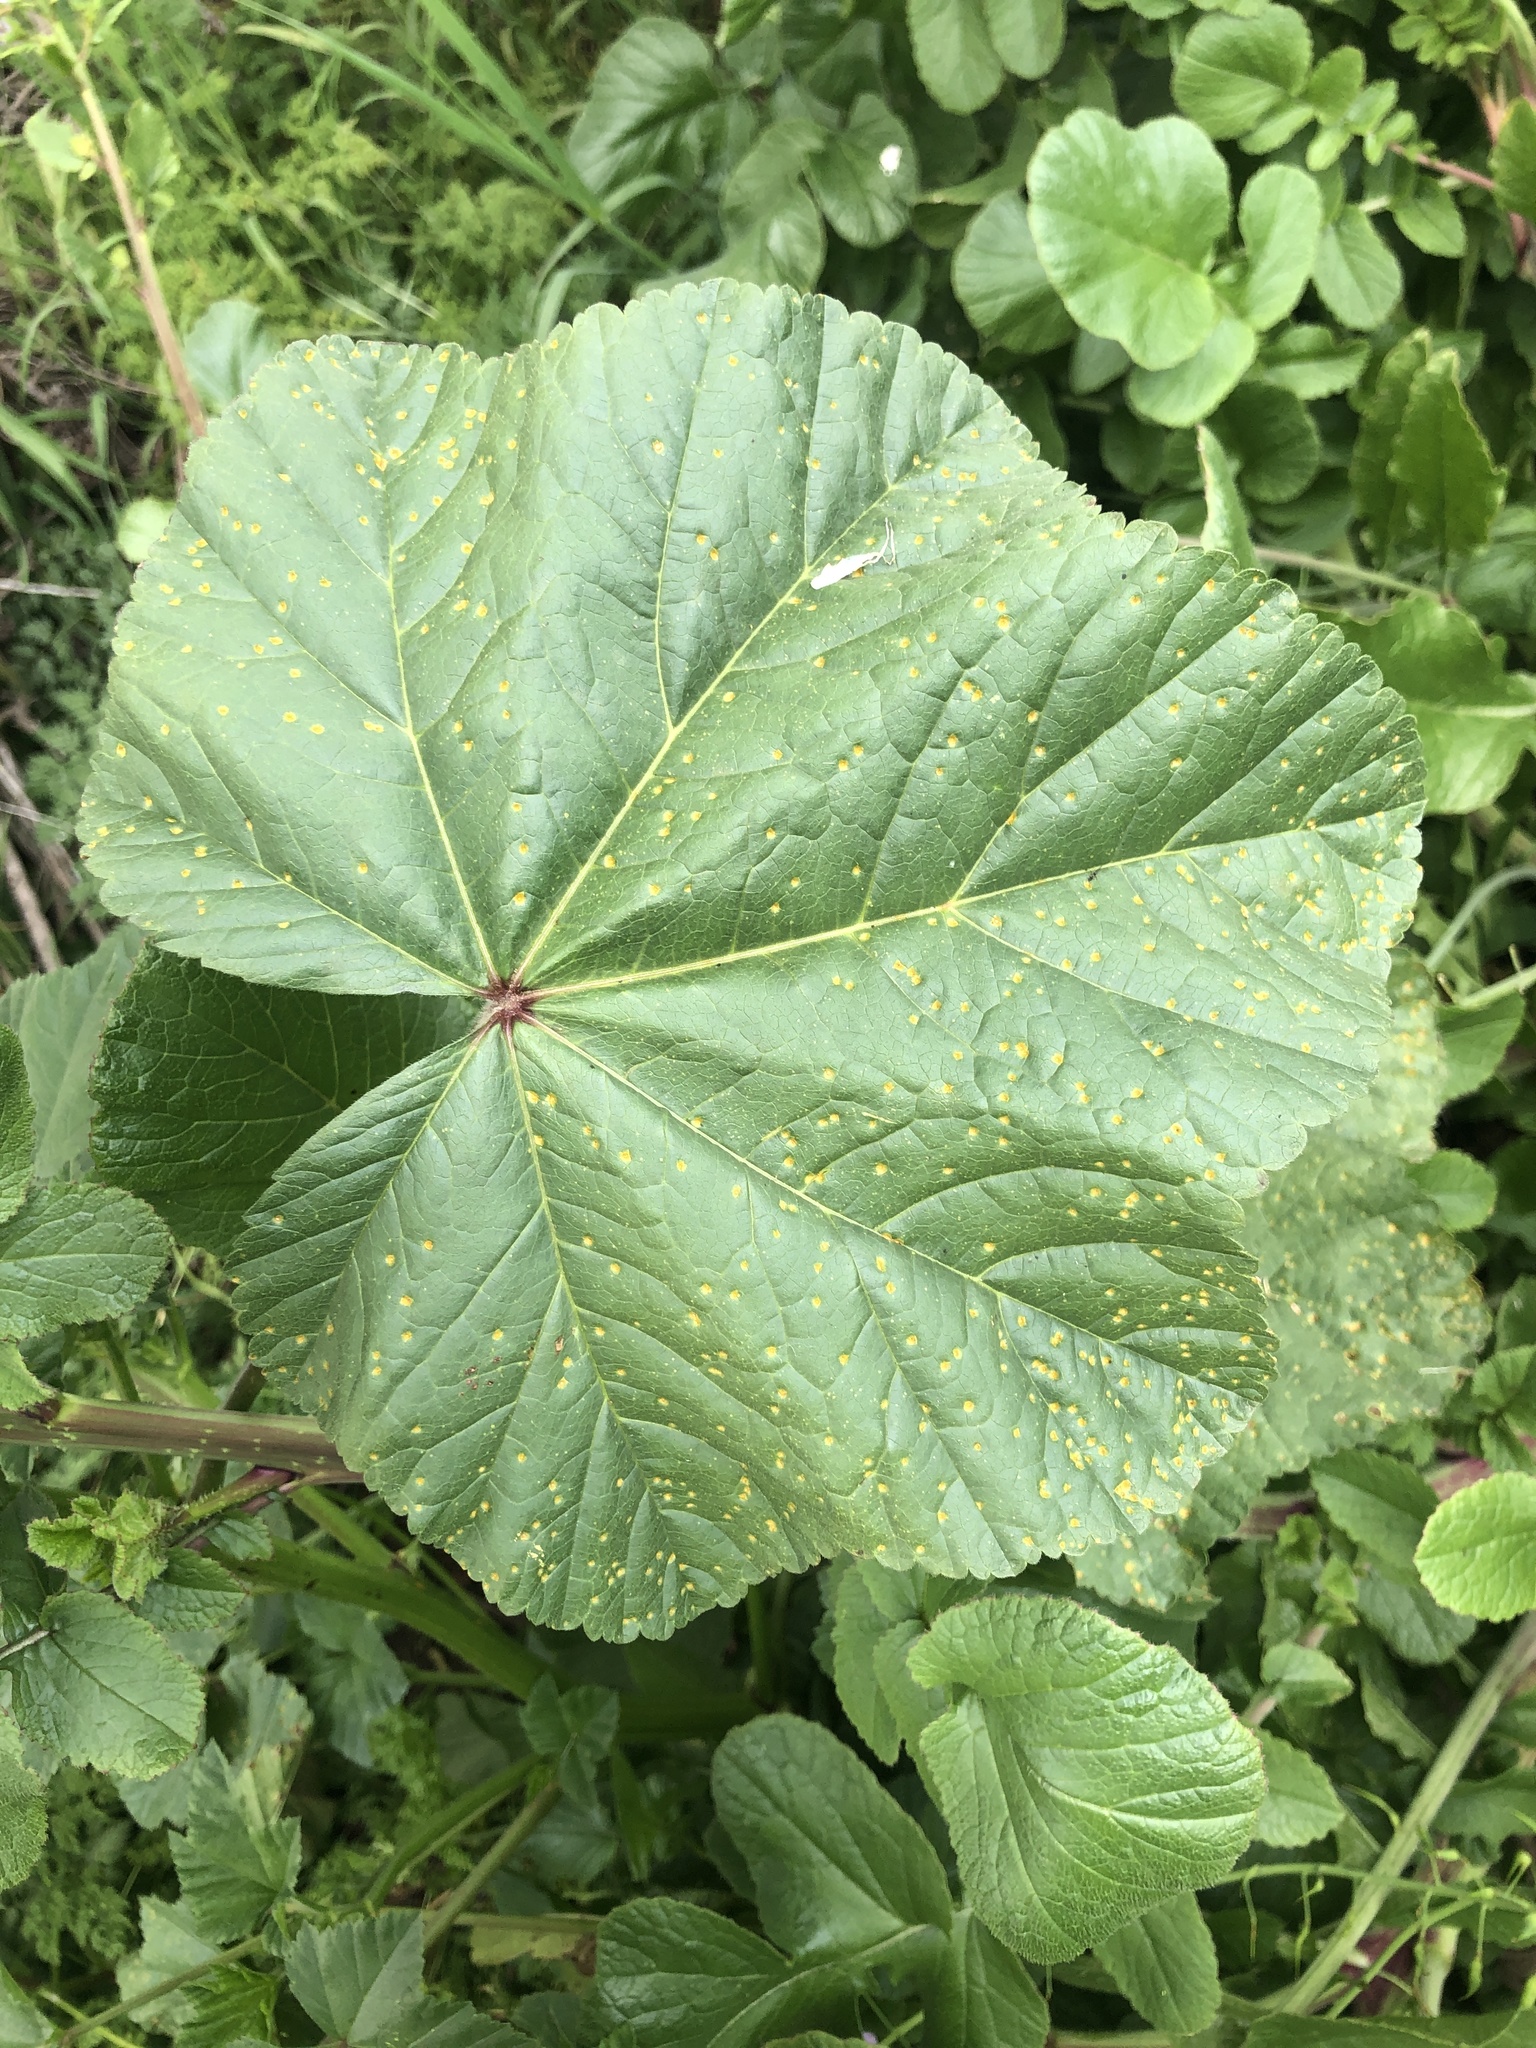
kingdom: Fungi
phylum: Basidiomycota
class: Pucciniomycetes
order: Pucciniales
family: Pucciniaceae
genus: Puccinia
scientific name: Puccinia malvacearum
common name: Hollyhock rust
